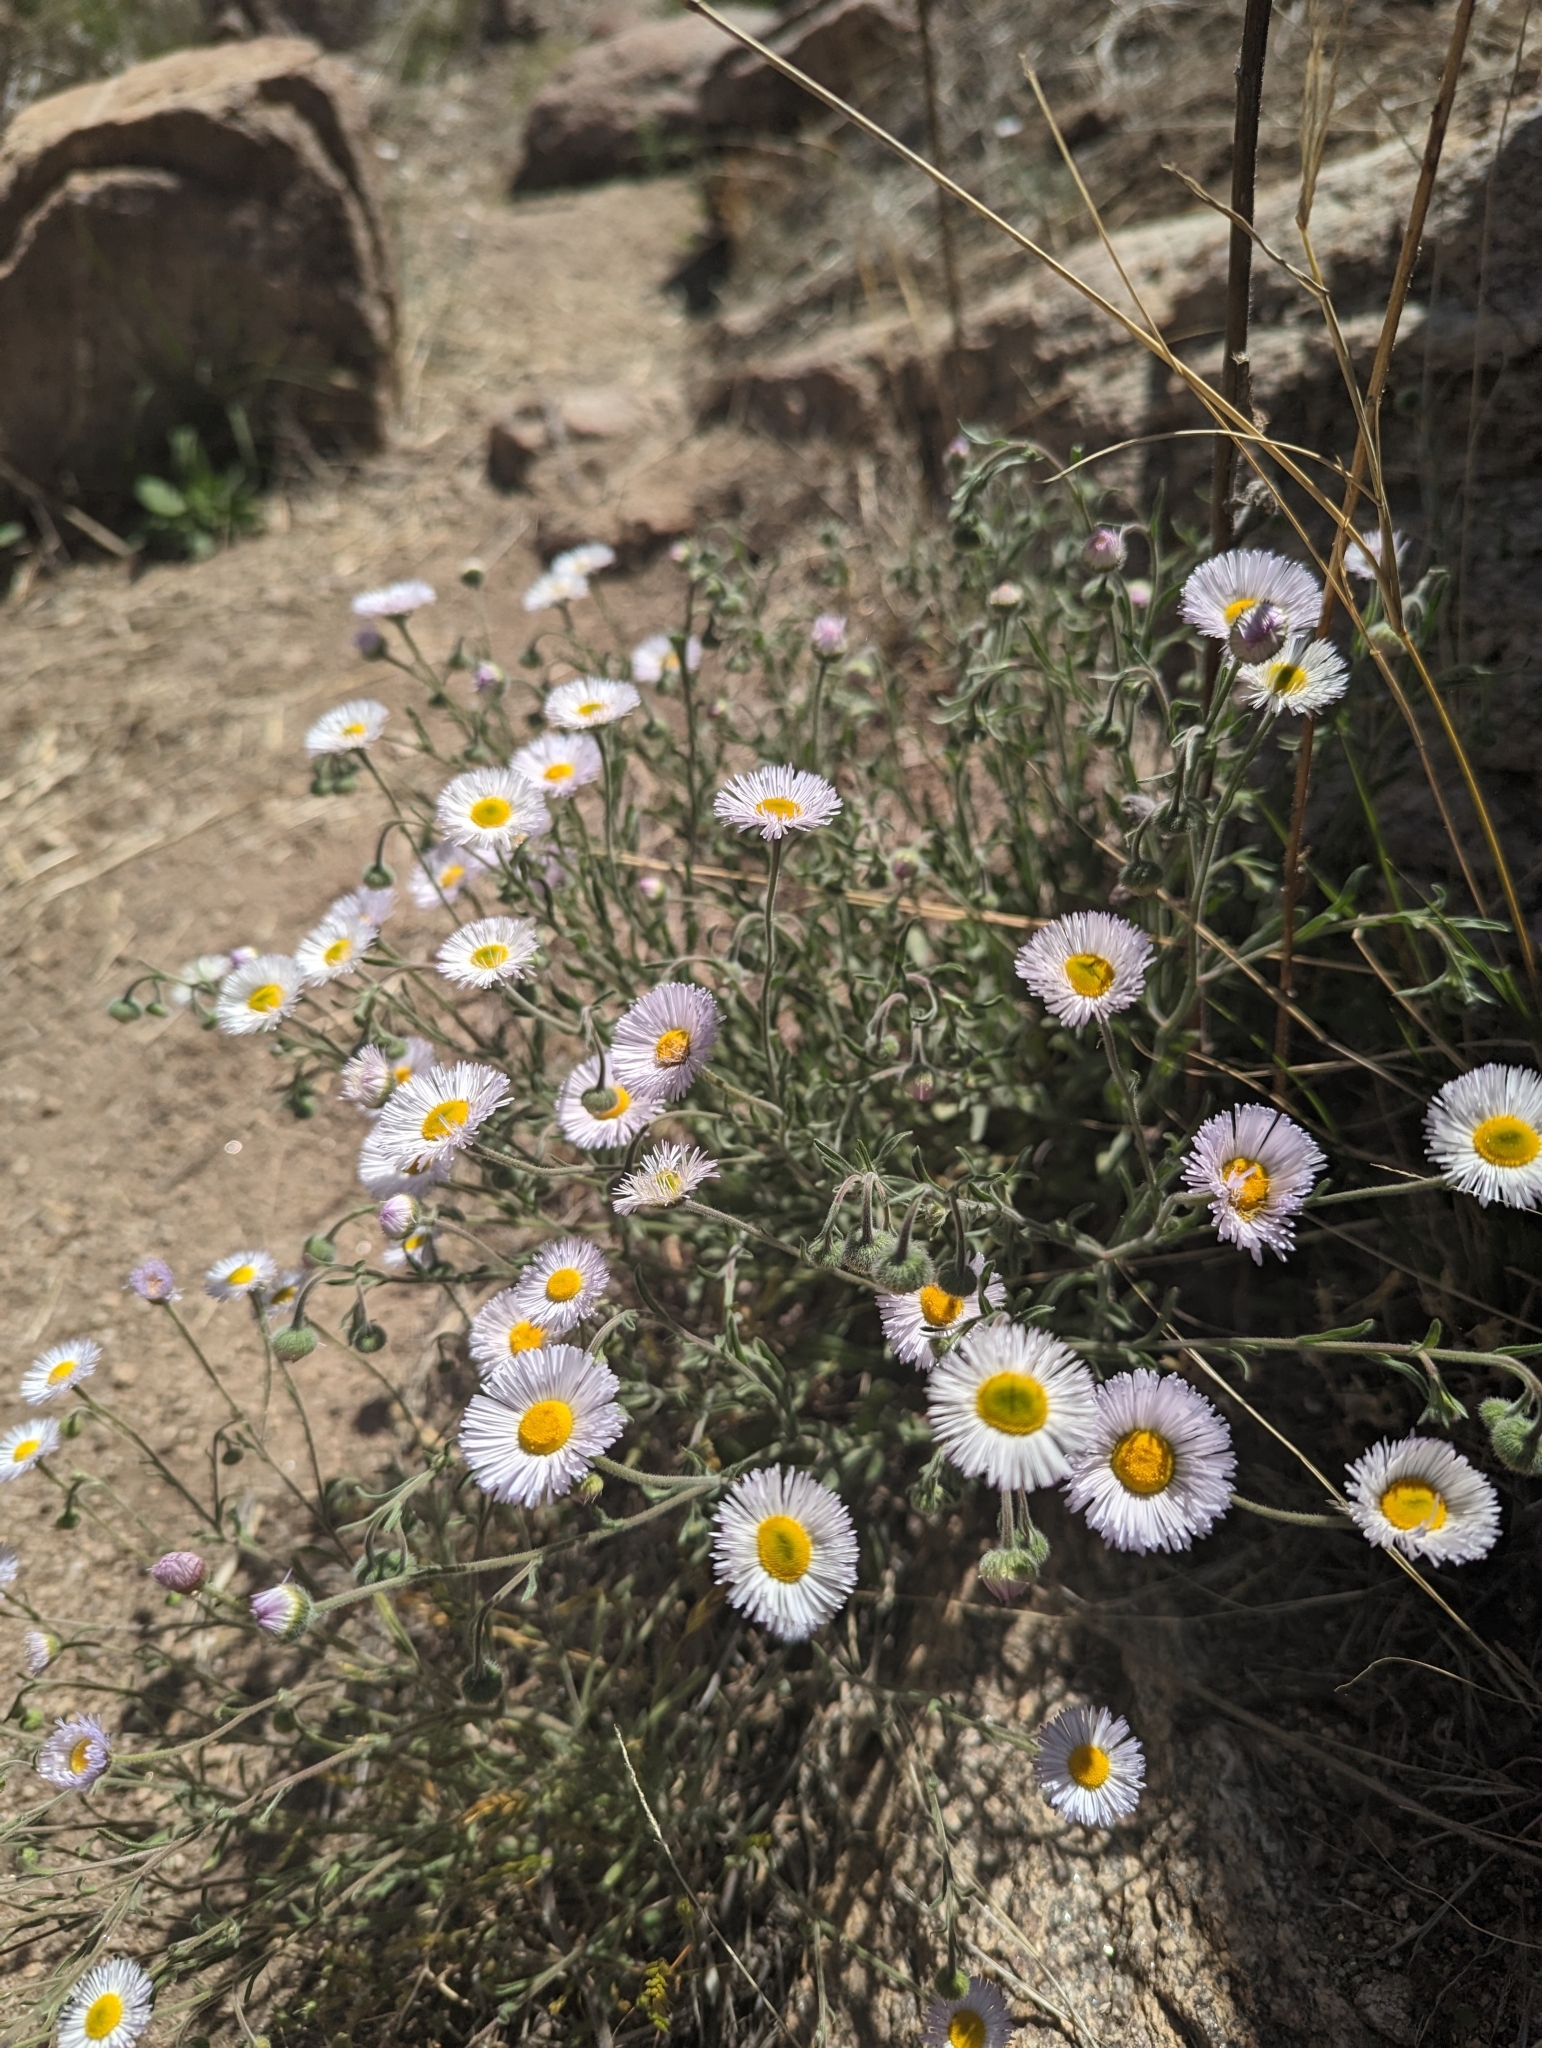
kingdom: Plantae
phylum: Tracheophyta
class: Magnoliopsida
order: Asterales
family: Asteraceae
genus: Erigeron
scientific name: Erigeron divergens
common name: Diffuse fleabane
